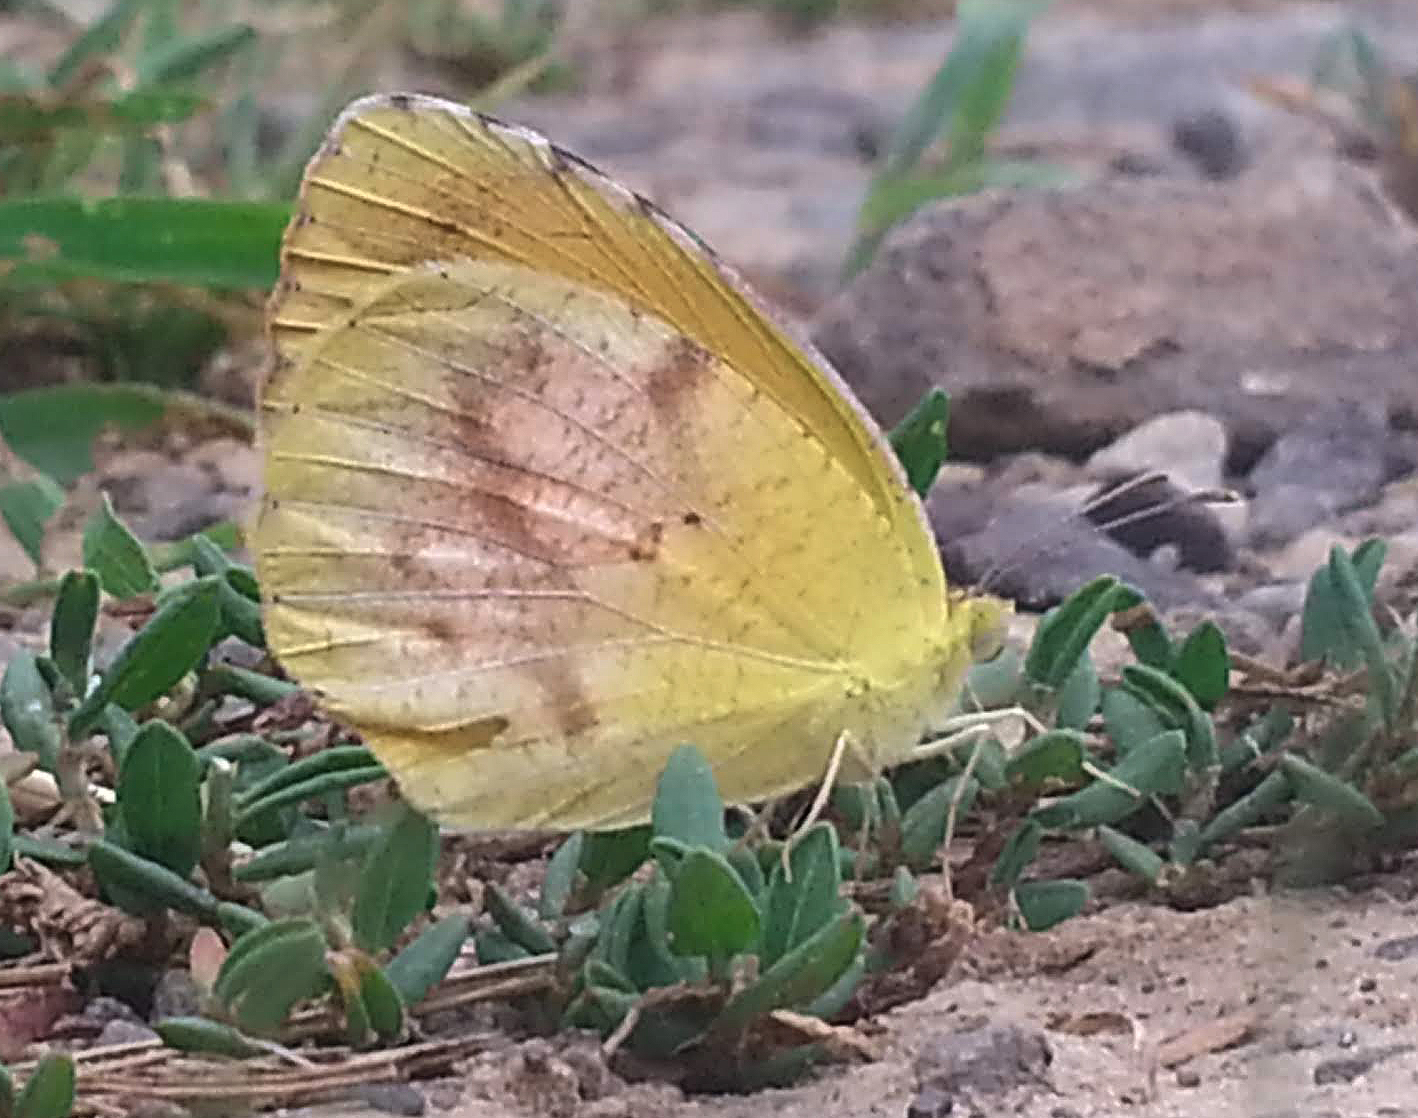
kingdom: Animalia
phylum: Arthropoda
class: Insecta
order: Lepidoptera
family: Pieridae
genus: Abaeis
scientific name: Abaeis nicippe
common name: Sleepy orange
